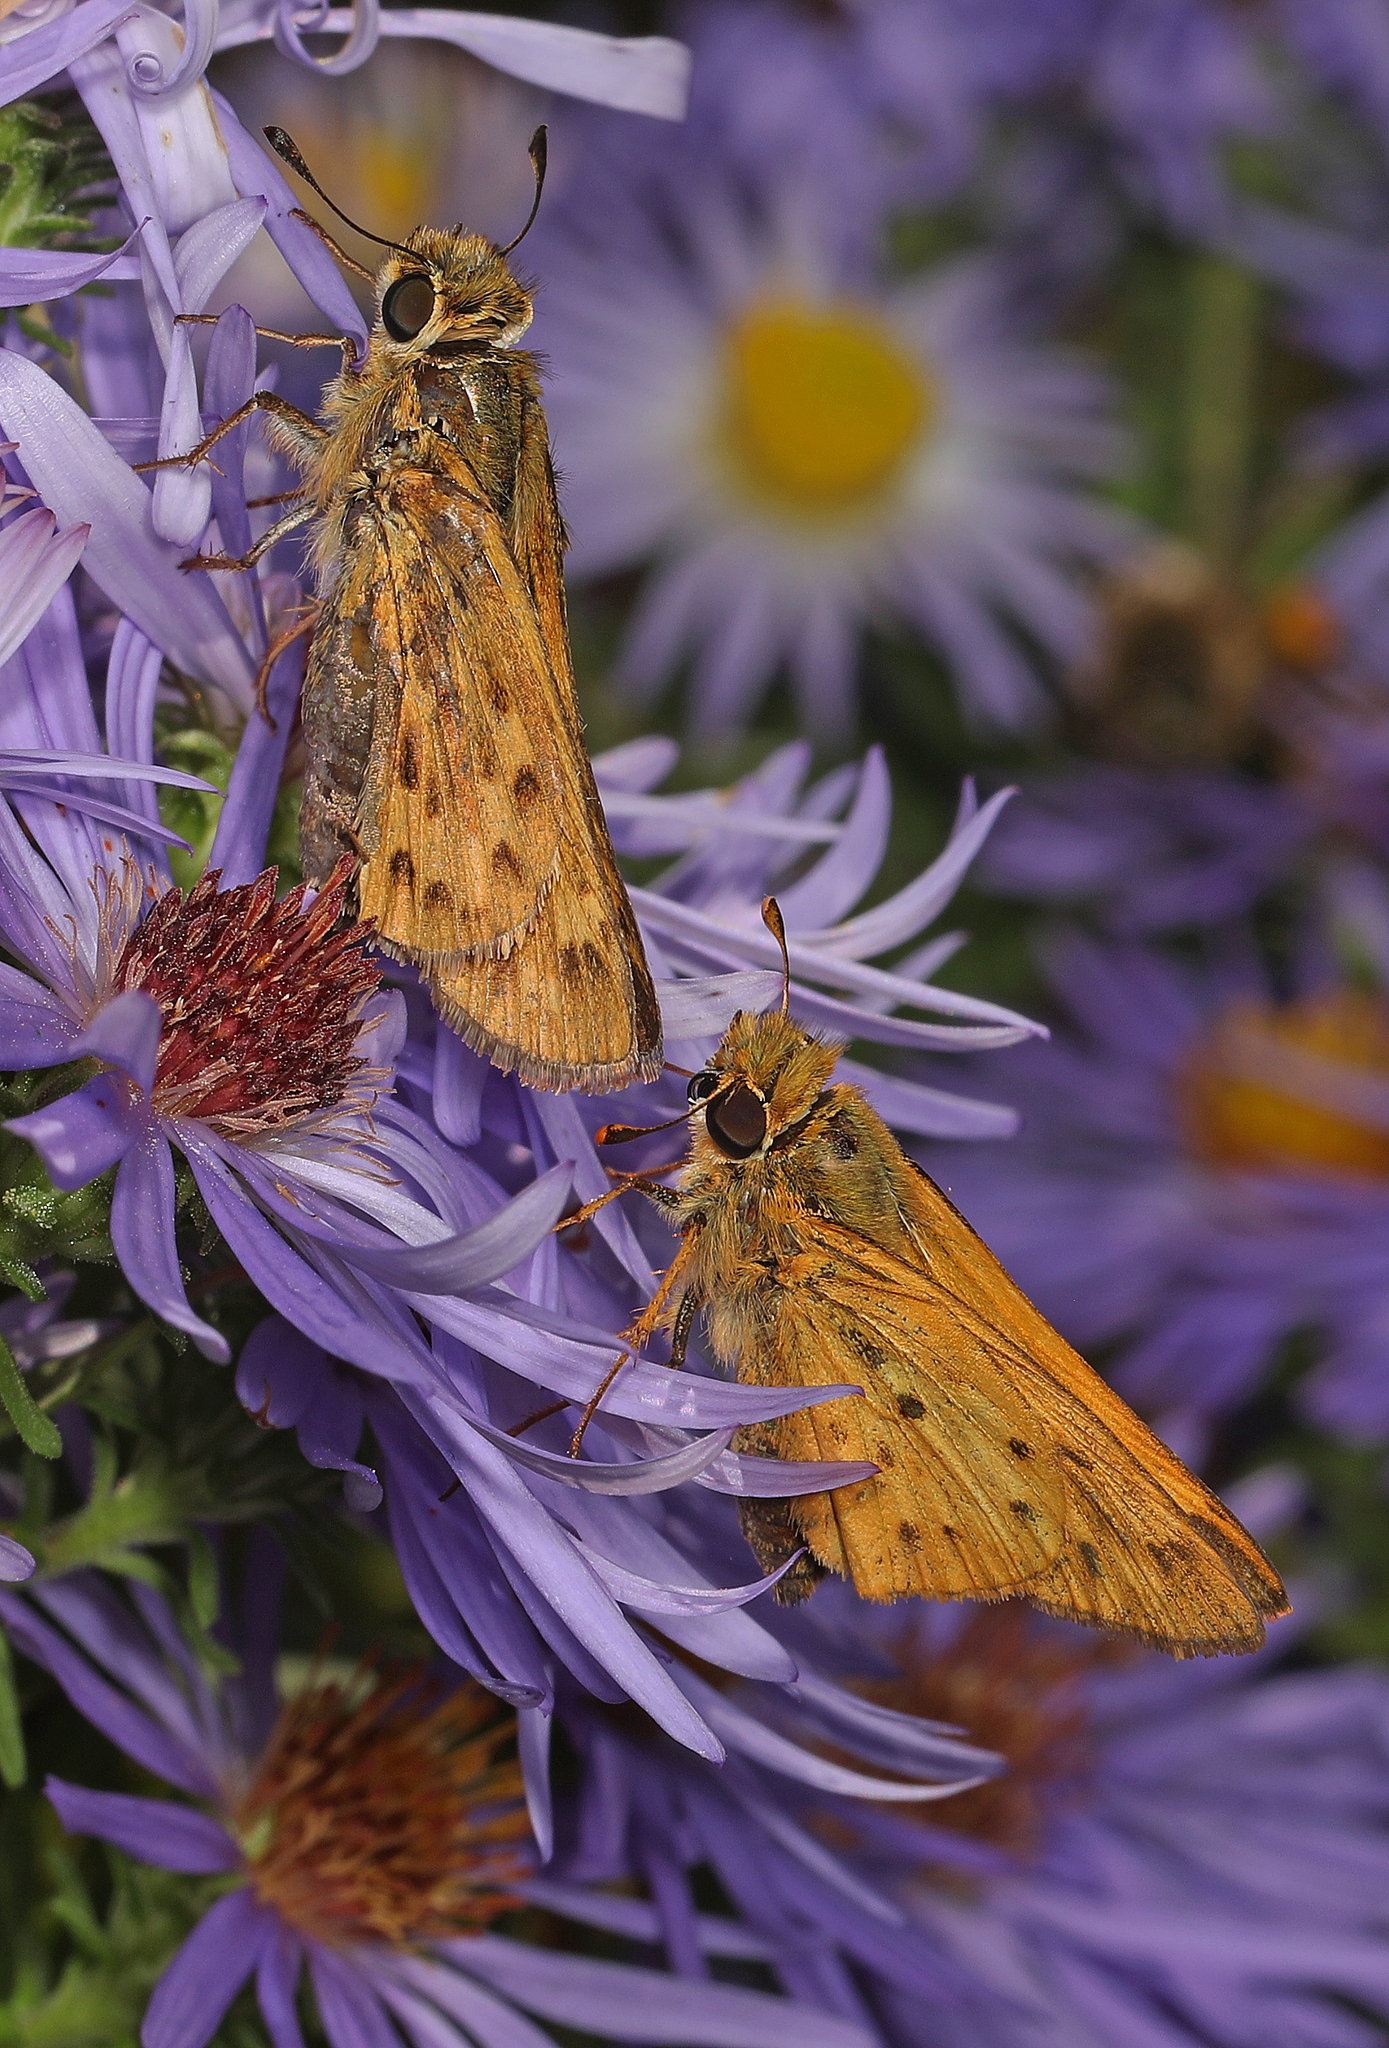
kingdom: Animalia
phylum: Arthropoda
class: Insecta
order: Lepidoptera
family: Hesperiidae
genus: Hylephila
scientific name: Hylephila phyleus
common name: Fiery skipper
